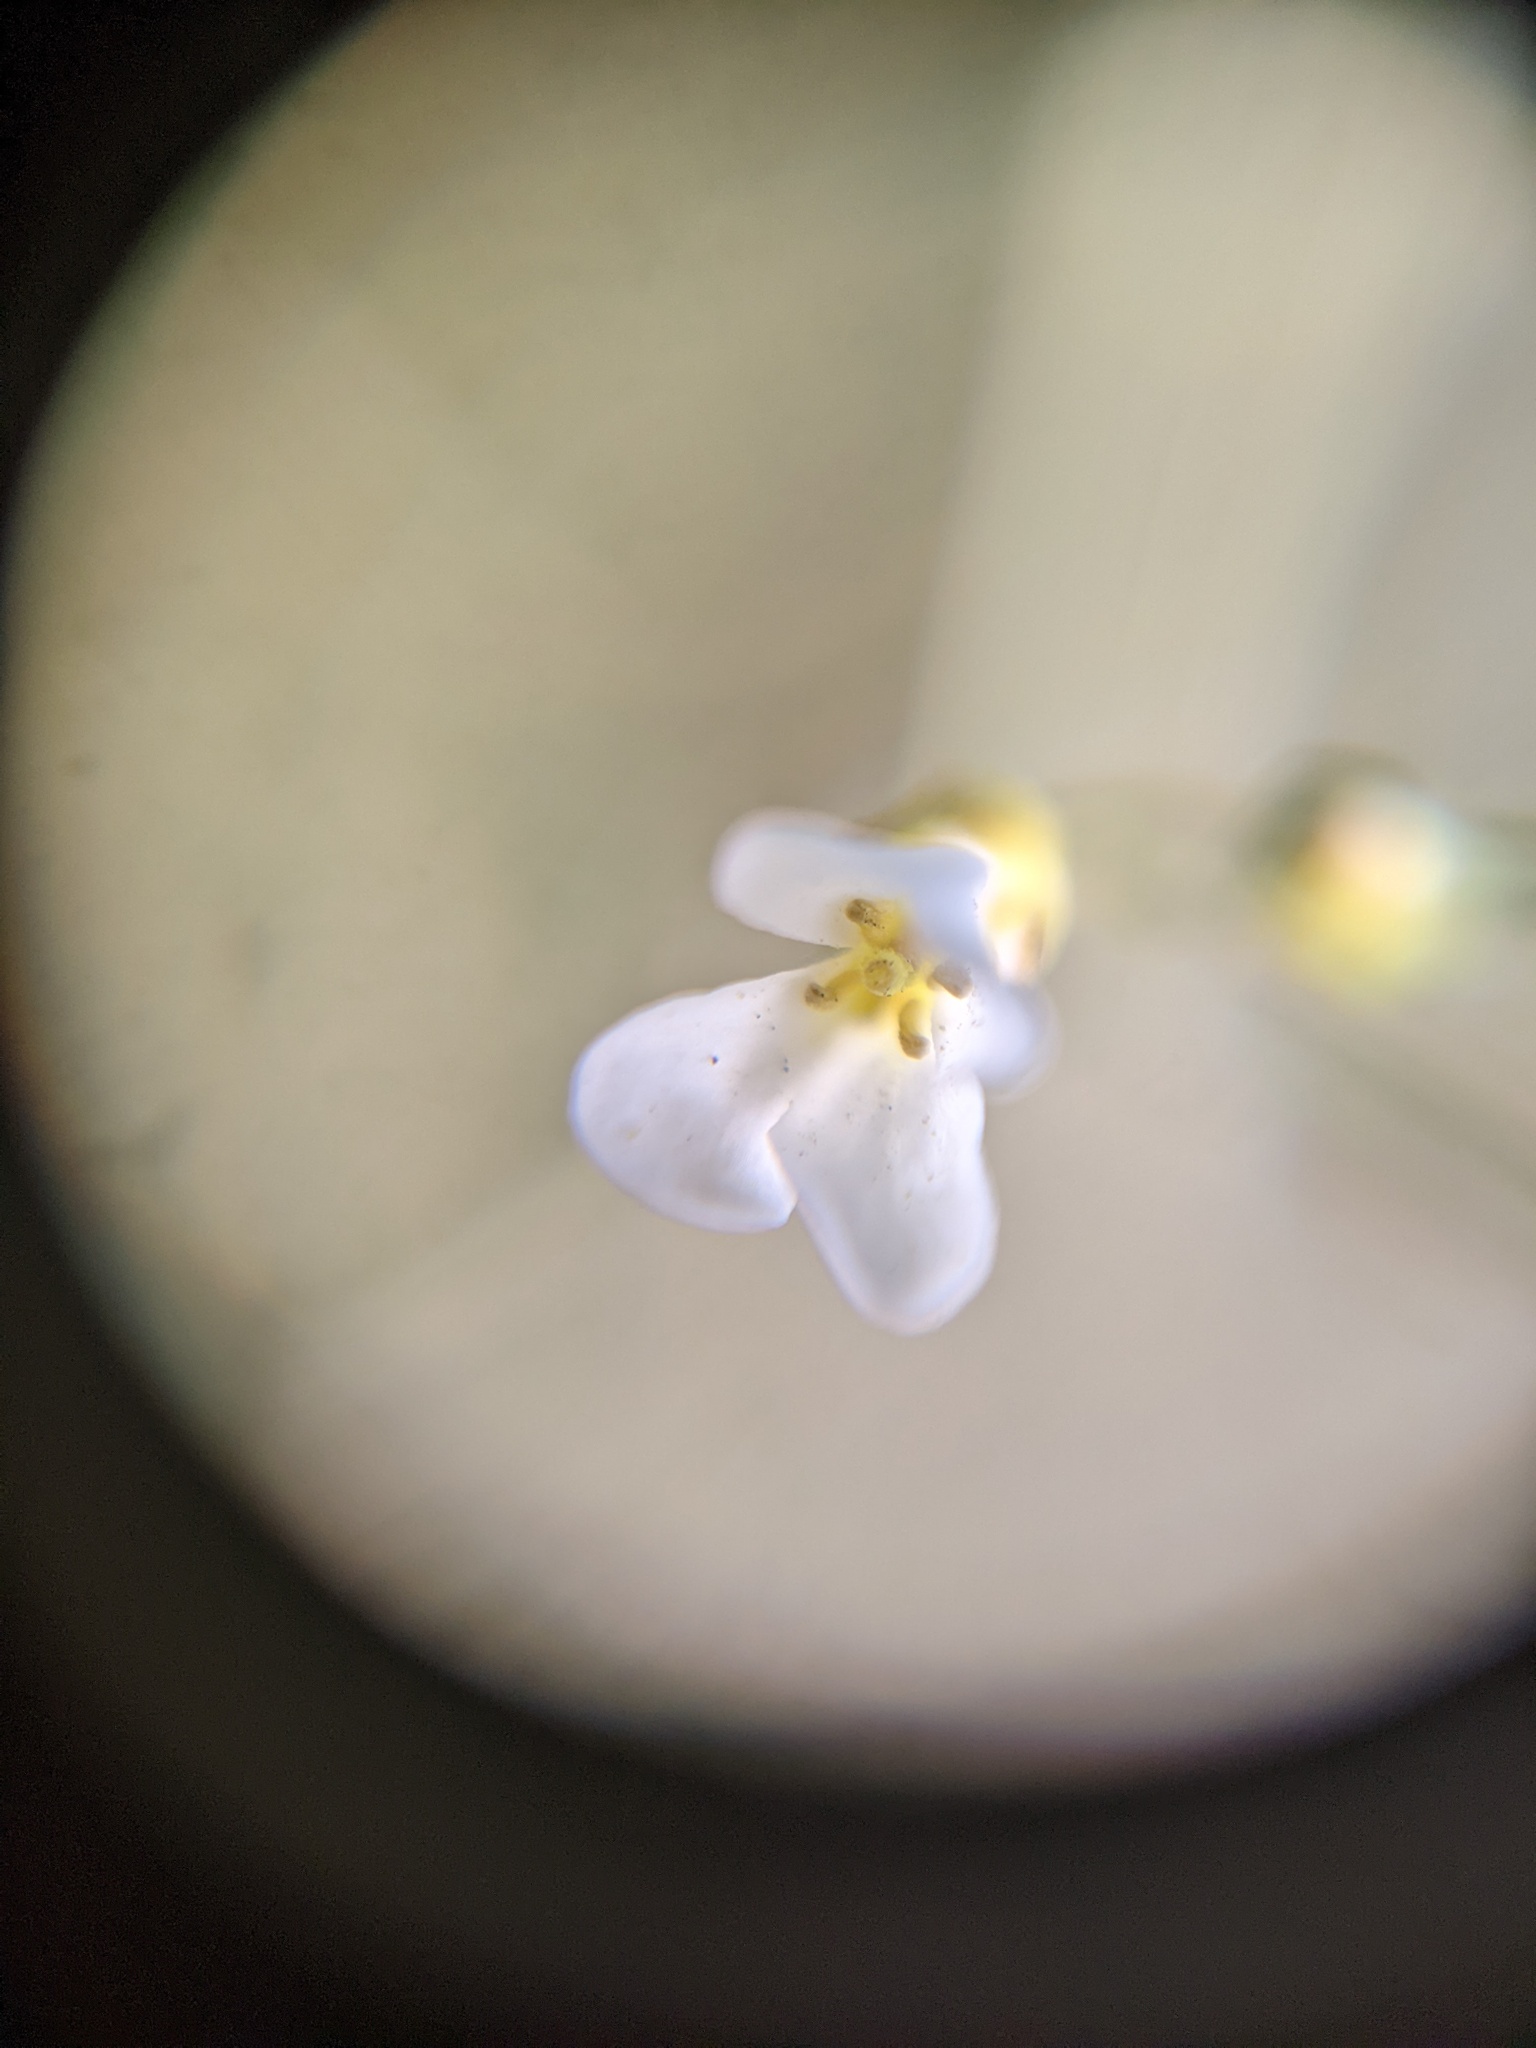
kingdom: Plantae
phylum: Tracheophyta
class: Magnoliopsida
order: Brassicales
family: Brassicaceae
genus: Arabidopsis
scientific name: Arabidopsis lyrata
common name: Lyrate rockcress
